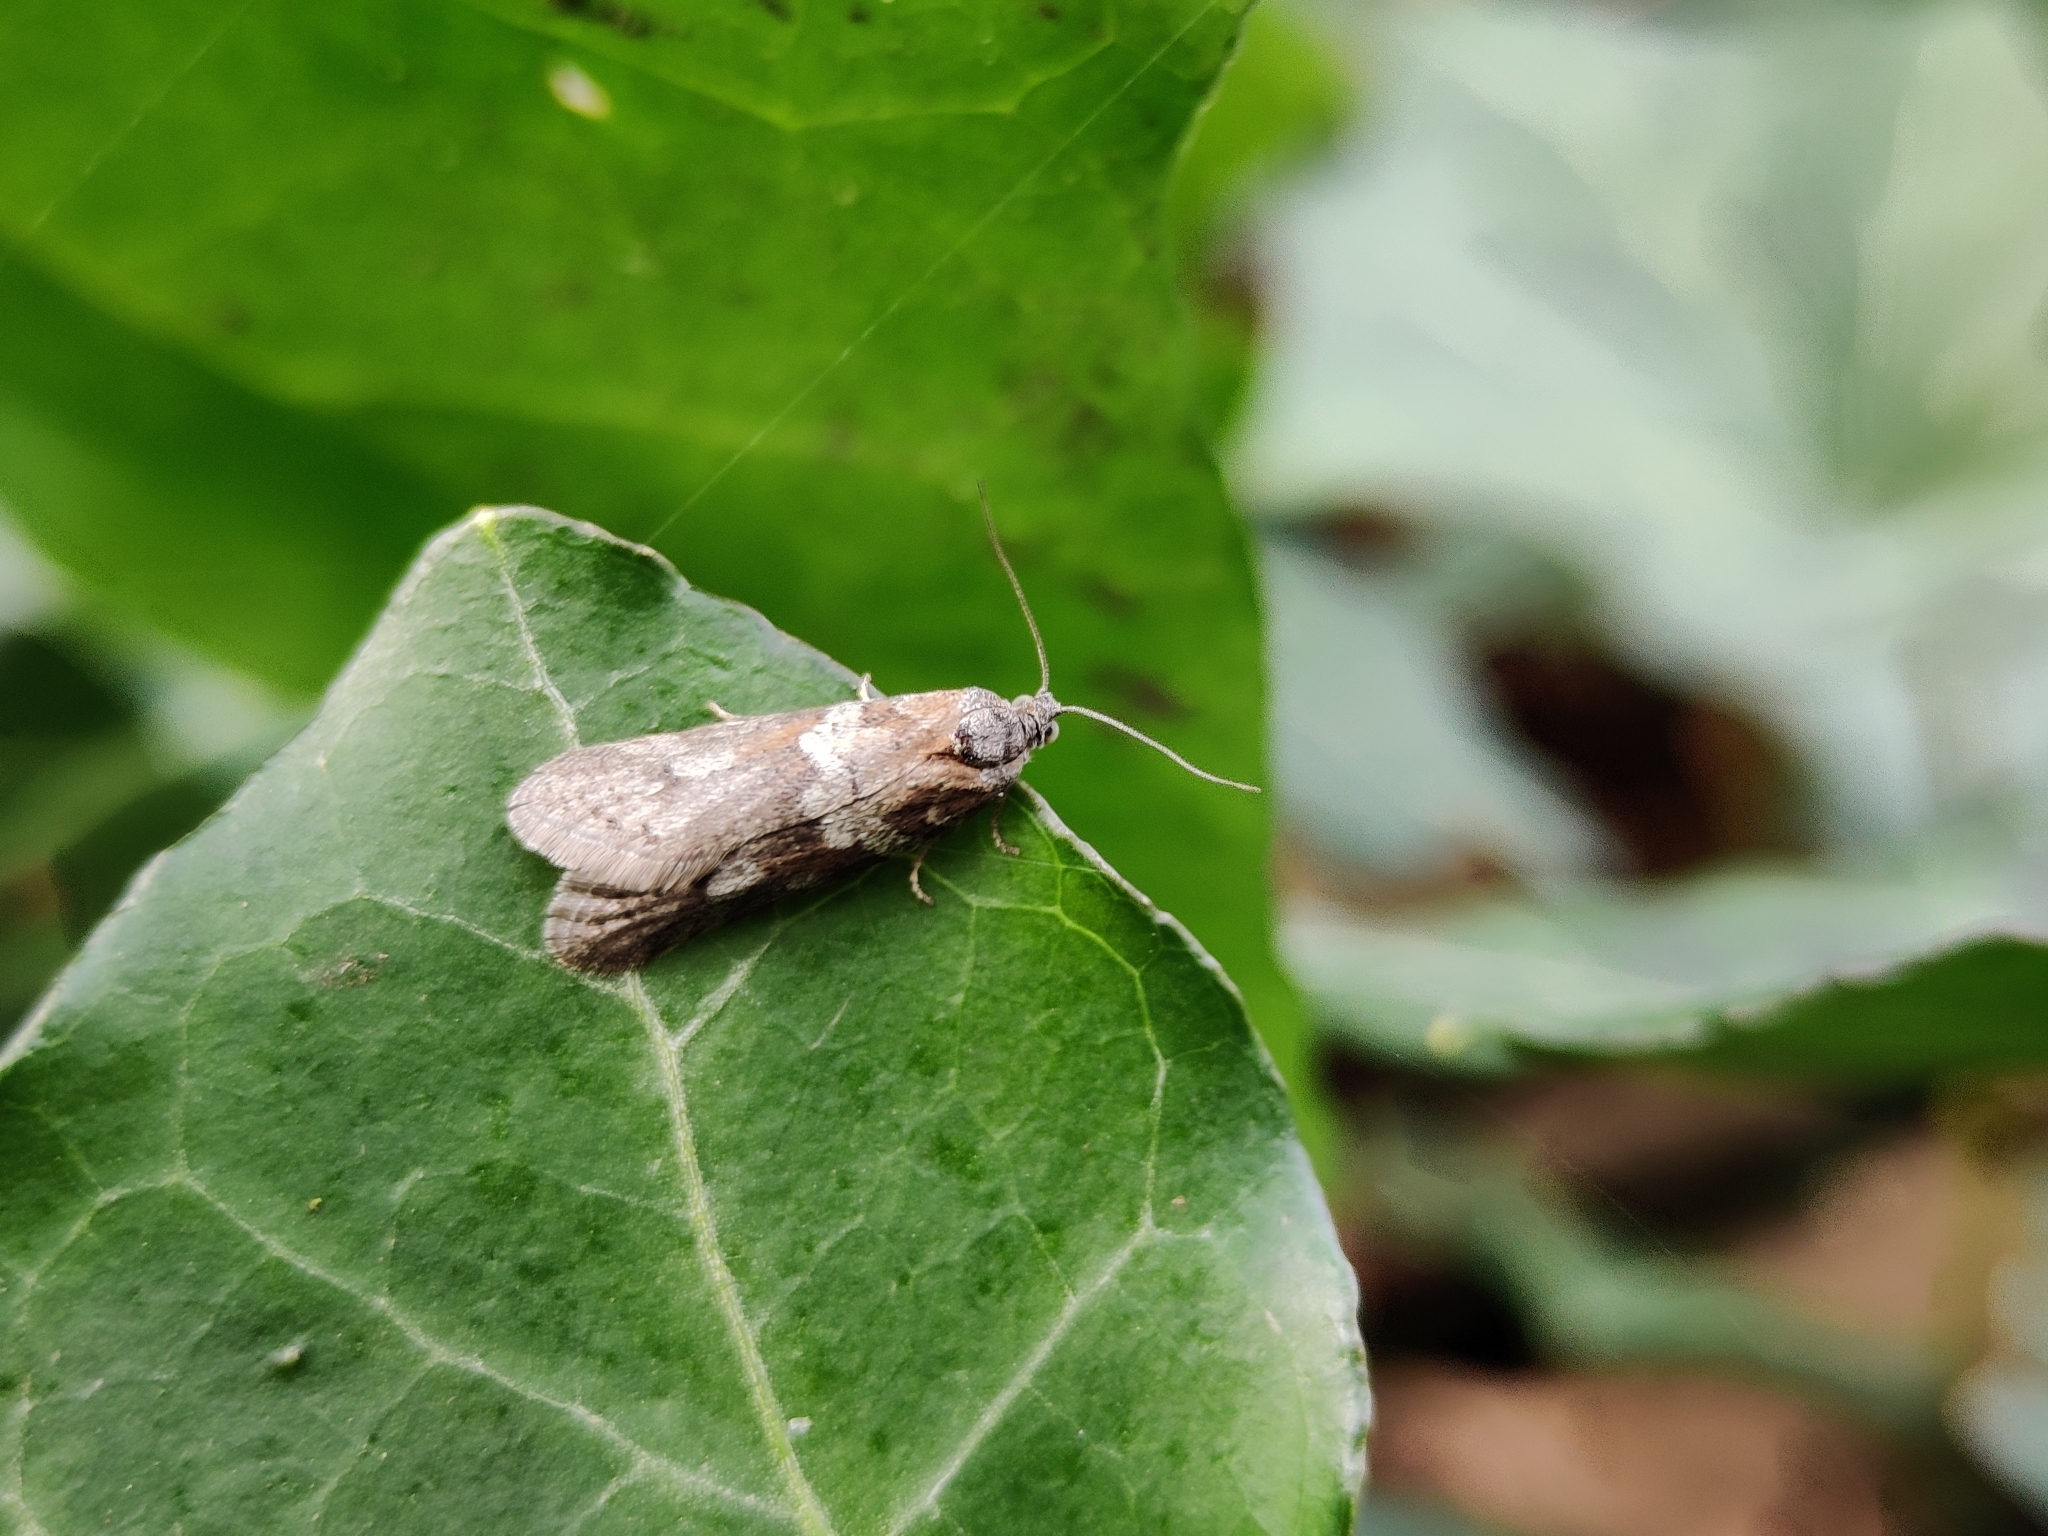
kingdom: Animalia
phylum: Arthropoda
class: Insecta
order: Lepidoptera
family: Tortricidae
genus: Tortricodes
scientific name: Tortricodes alternella
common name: Winter shade
